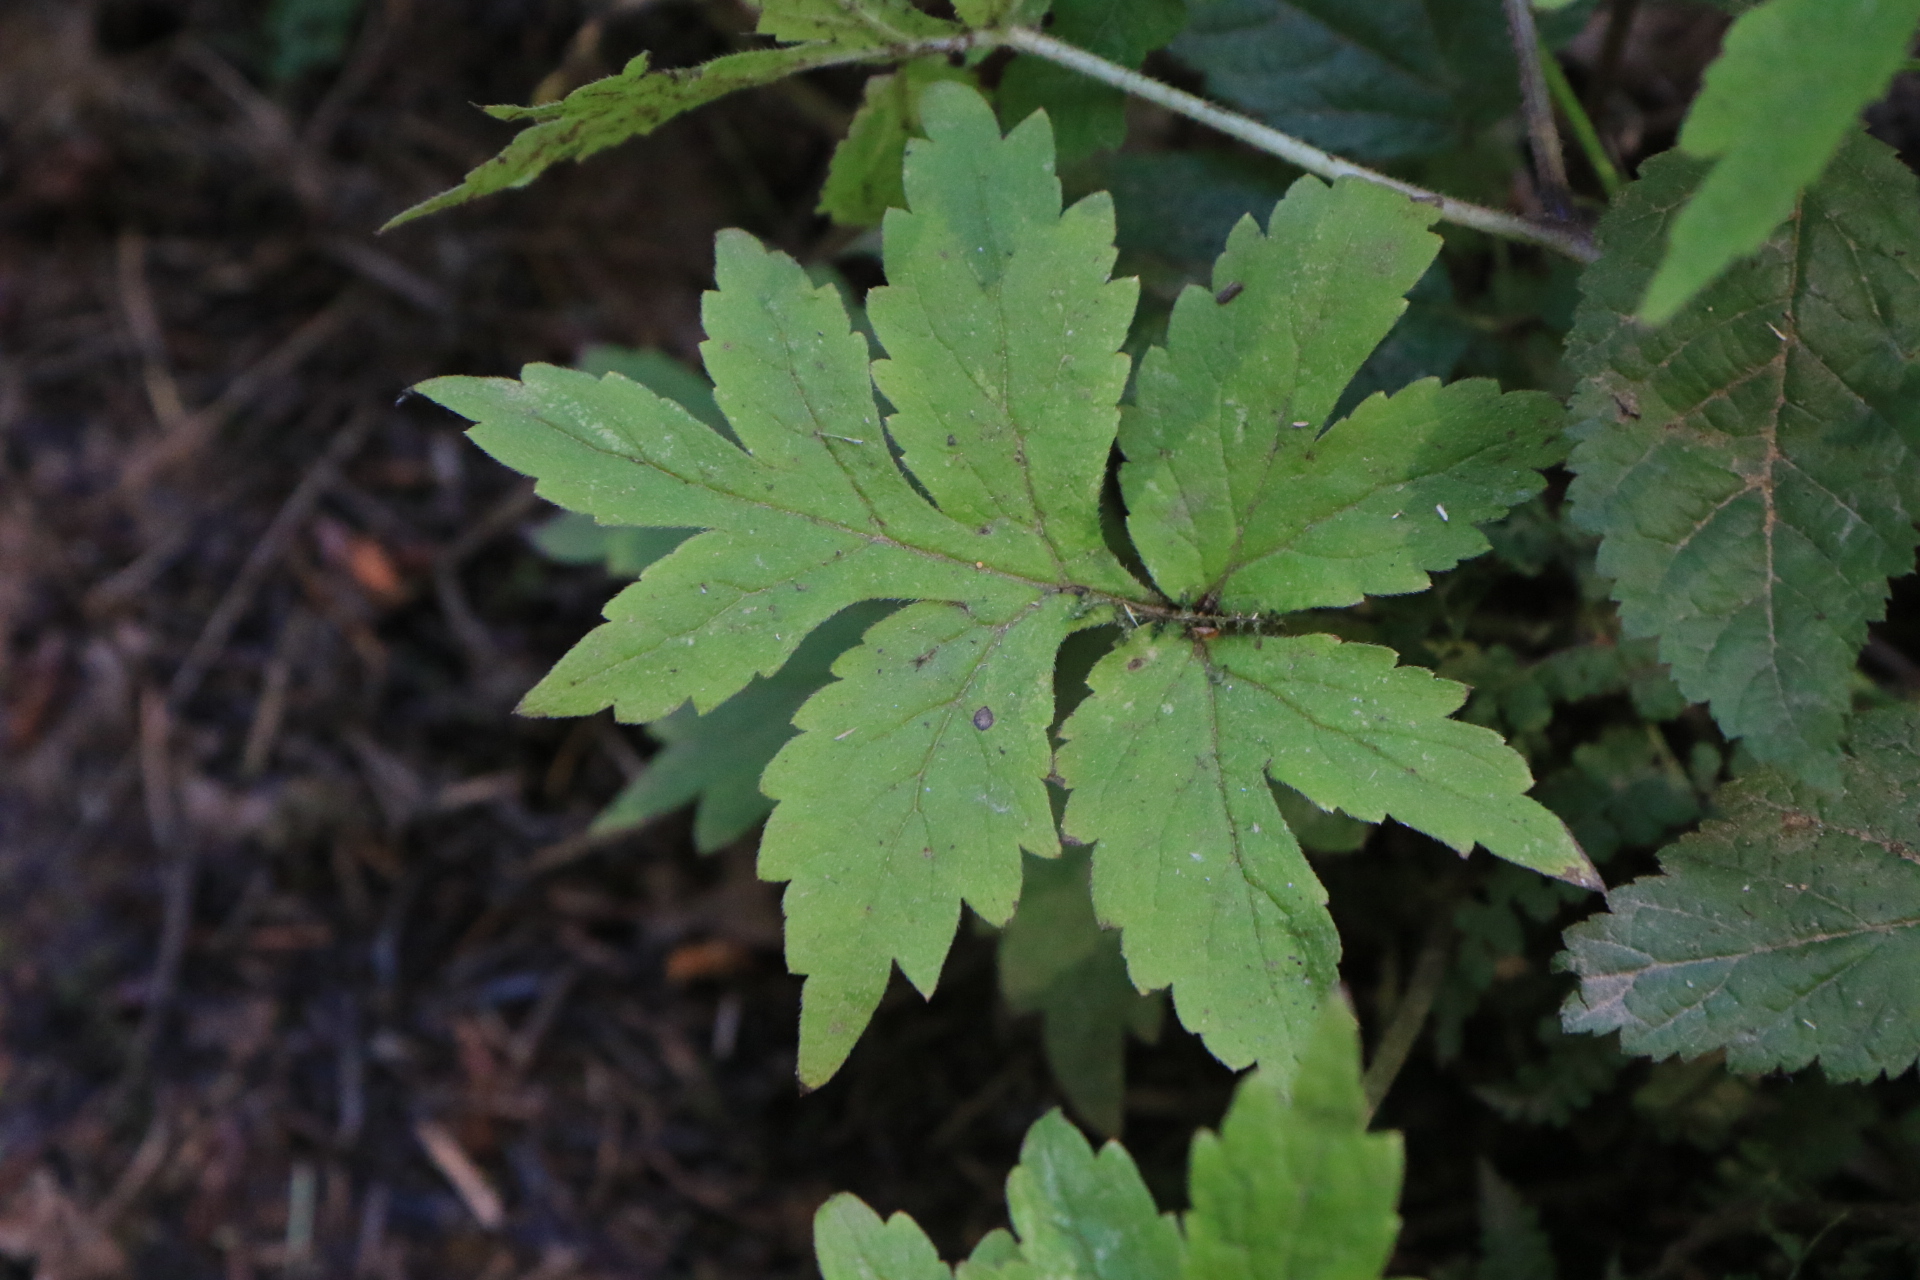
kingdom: Plantae
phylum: Tracheophyta
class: Magnoliopsida
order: Boraginales
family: Hydrophyllaceae
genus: Hydrophyllum
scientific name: Hydrophyllum tenuipes
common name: Pacific waterleaf
